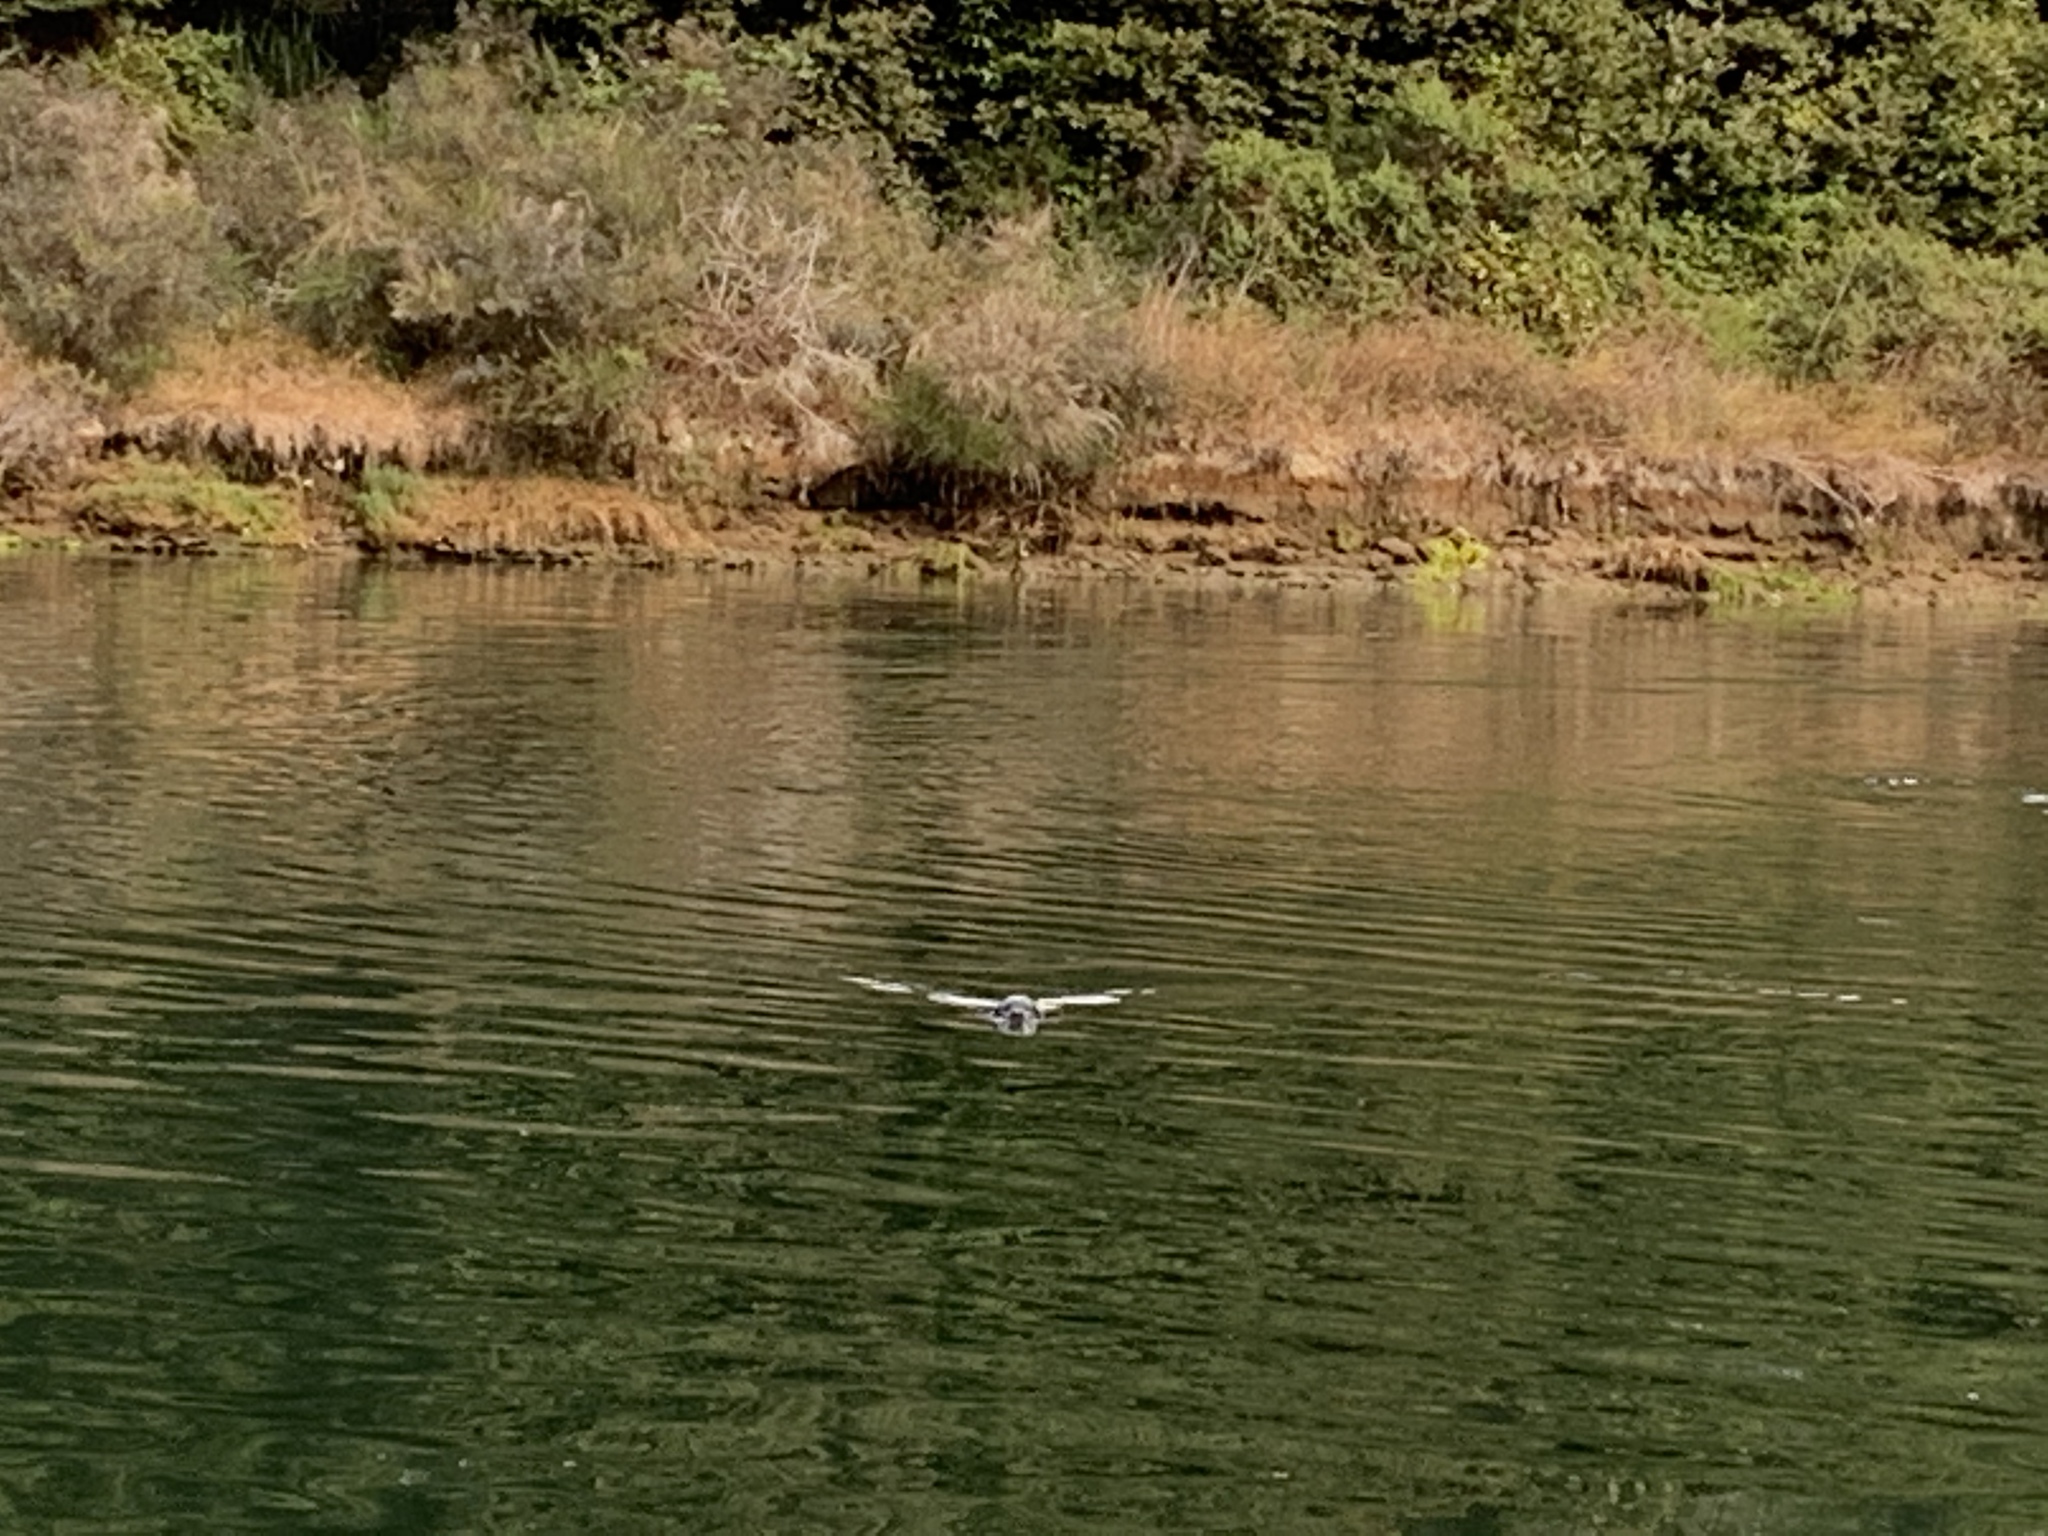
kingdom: Animalia
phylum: Chordata
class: Mammalia
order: Carnivora
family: Phocidae
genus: Phoca
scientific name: Phoca vitulina
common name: Harbor seal
